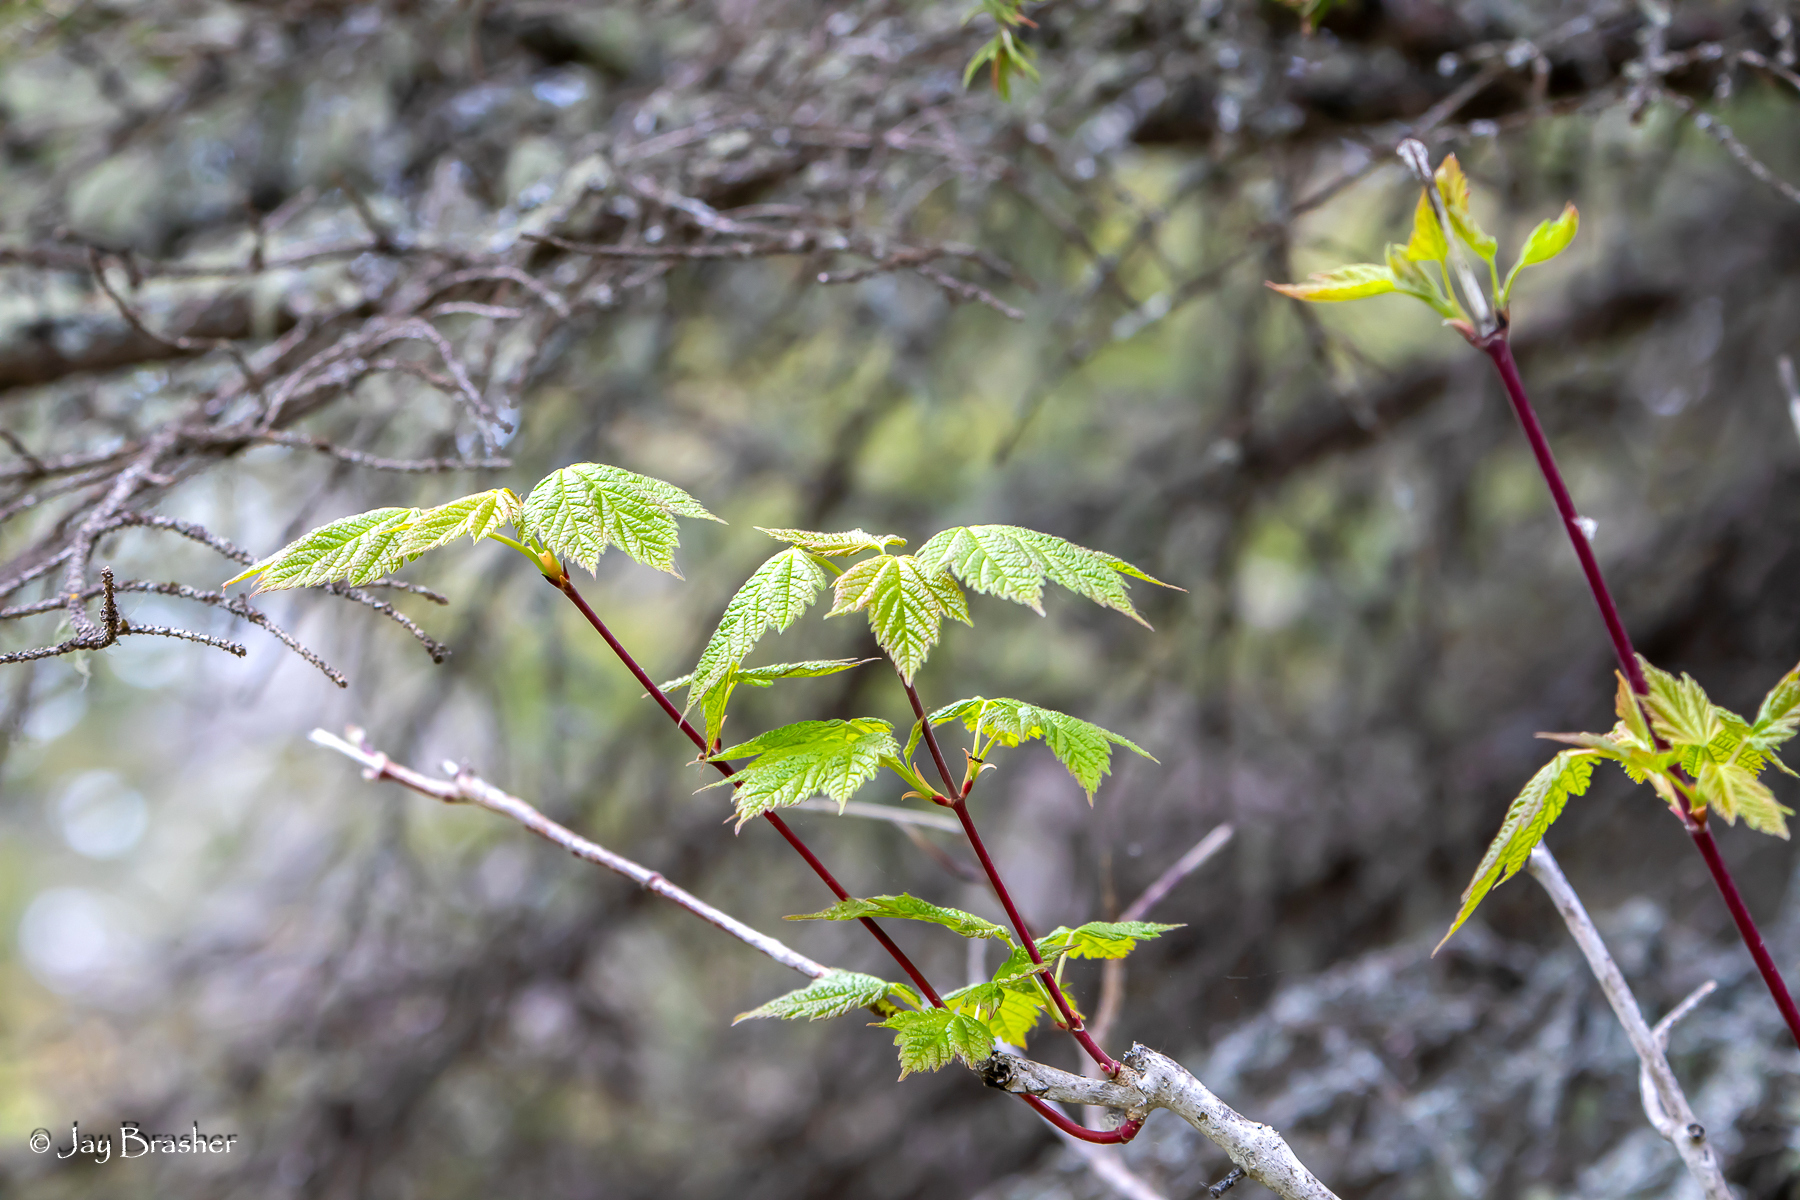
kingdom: Plantae
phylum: Tracheophyta
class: Magnoliopsida
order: Sapindales
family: Sapindaceae
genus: Acer
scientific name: Acer spicatum
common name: Mountain maple
